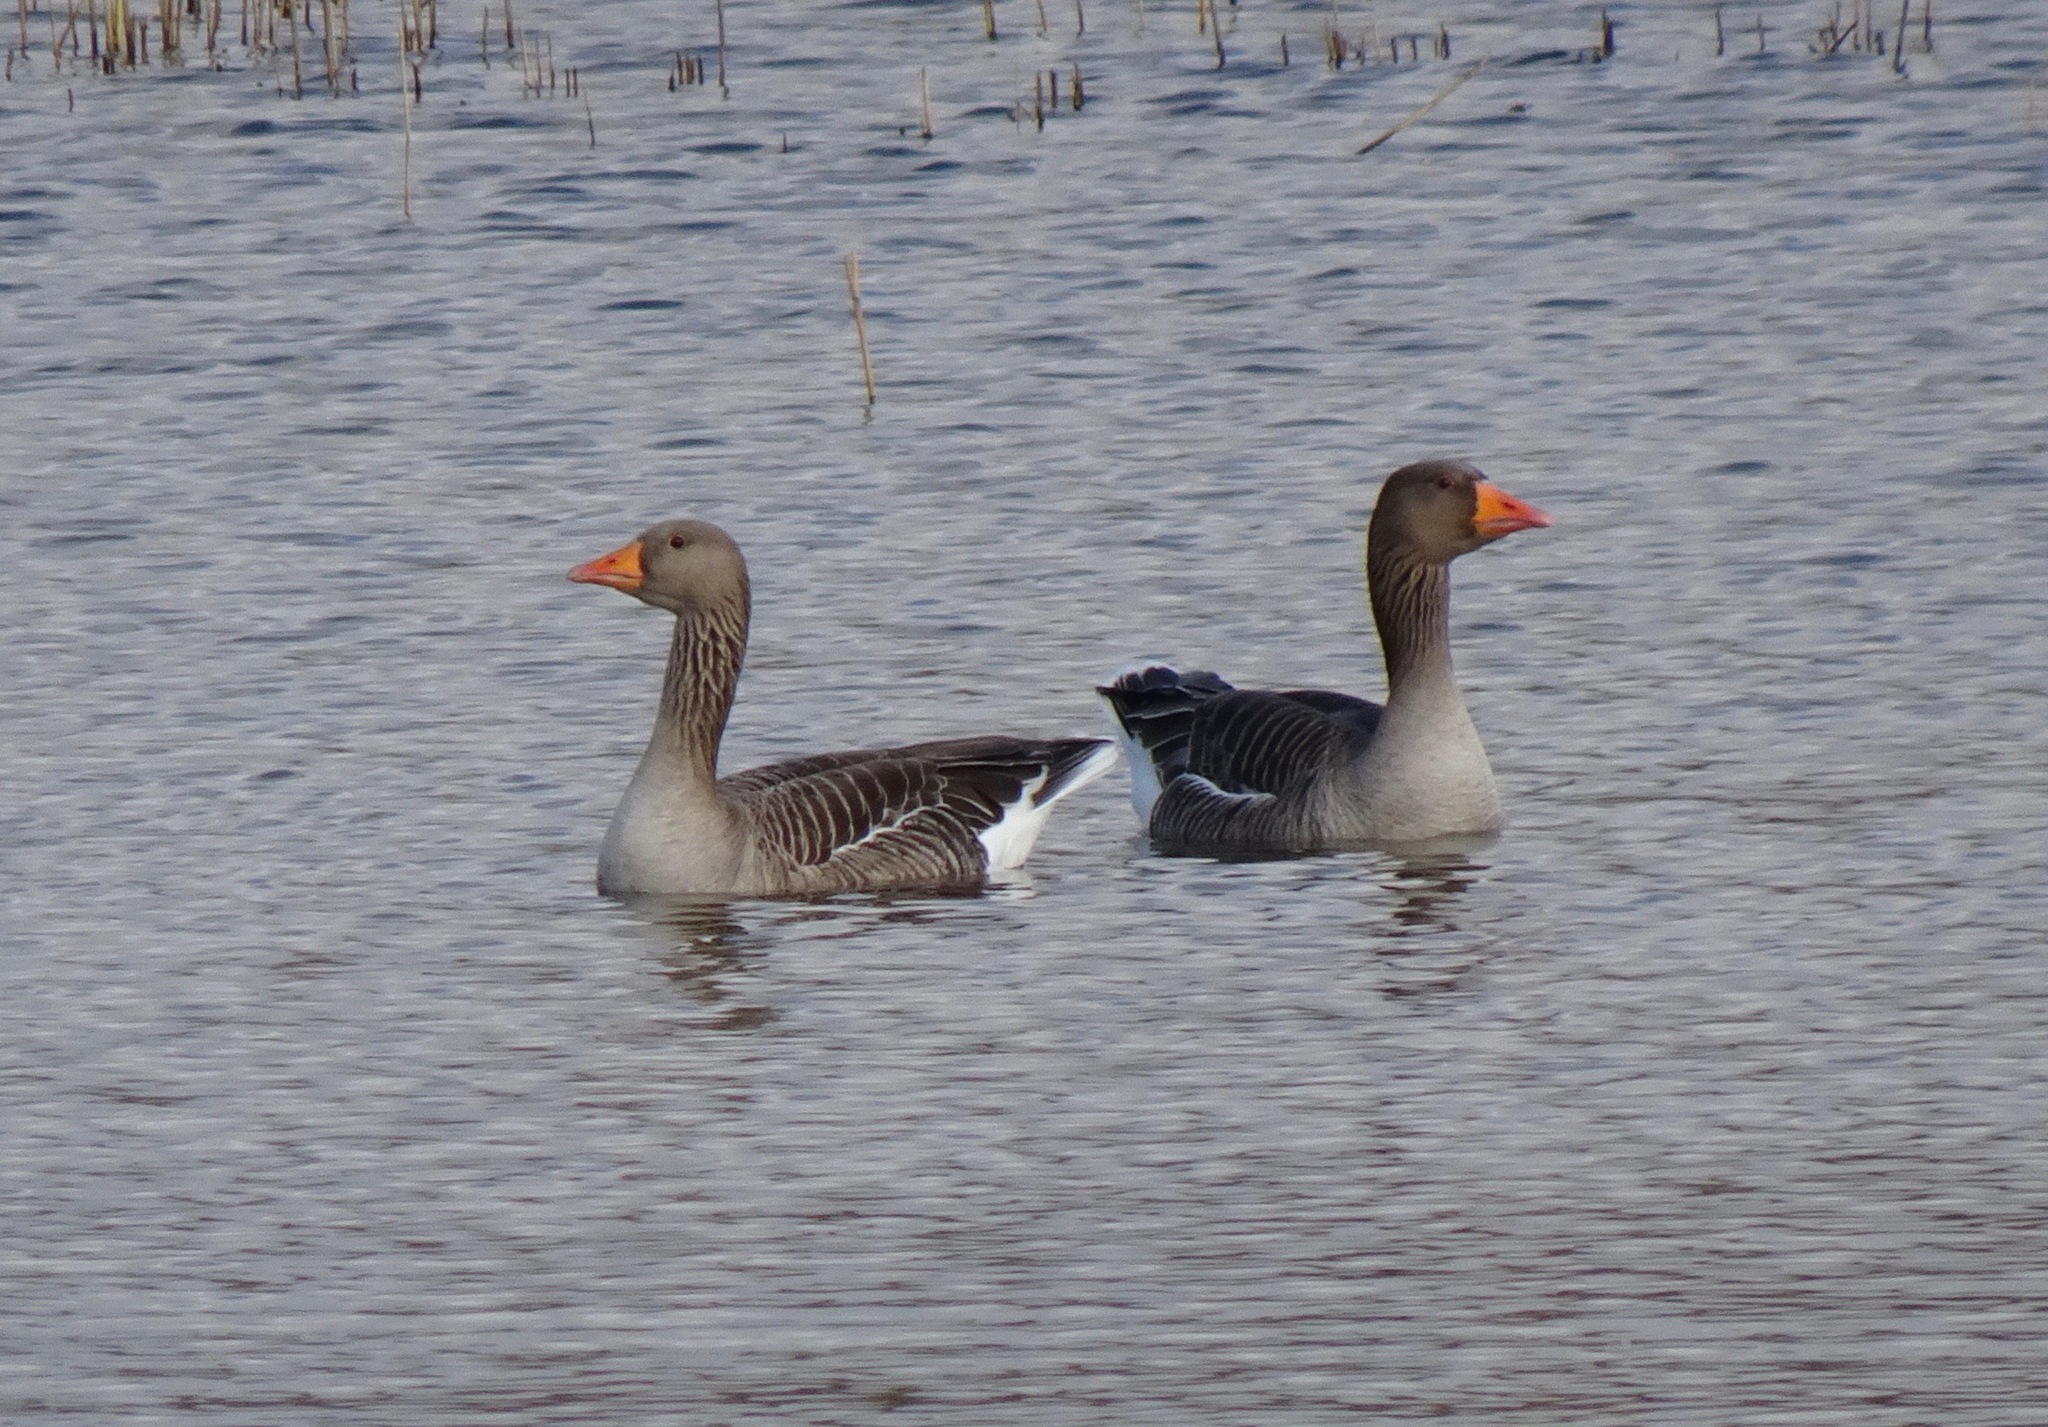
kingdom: Animalia
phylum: Chordata
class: Aves
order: Anseriformes
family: Anatidae
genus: Anser
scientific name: Anser anser
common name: Greylag goose
